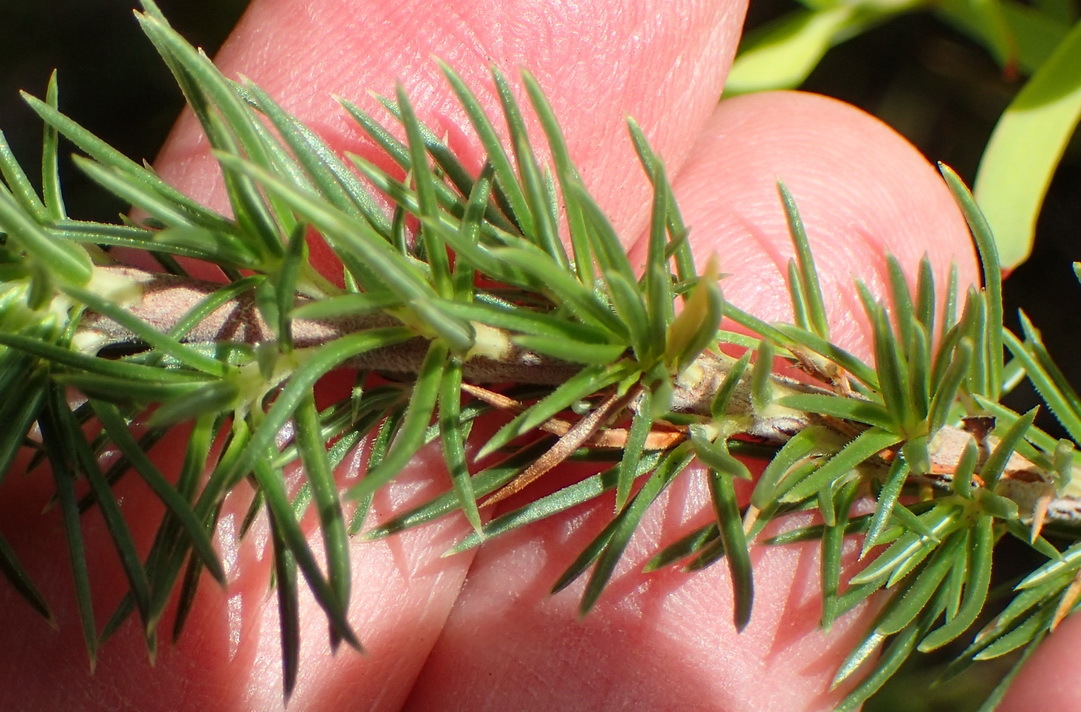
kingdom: Plantae
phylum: Tracheophyta
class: Magnoliopsida
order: Ericales
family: Ericaceae
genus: Erica
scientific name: Erica nabea
